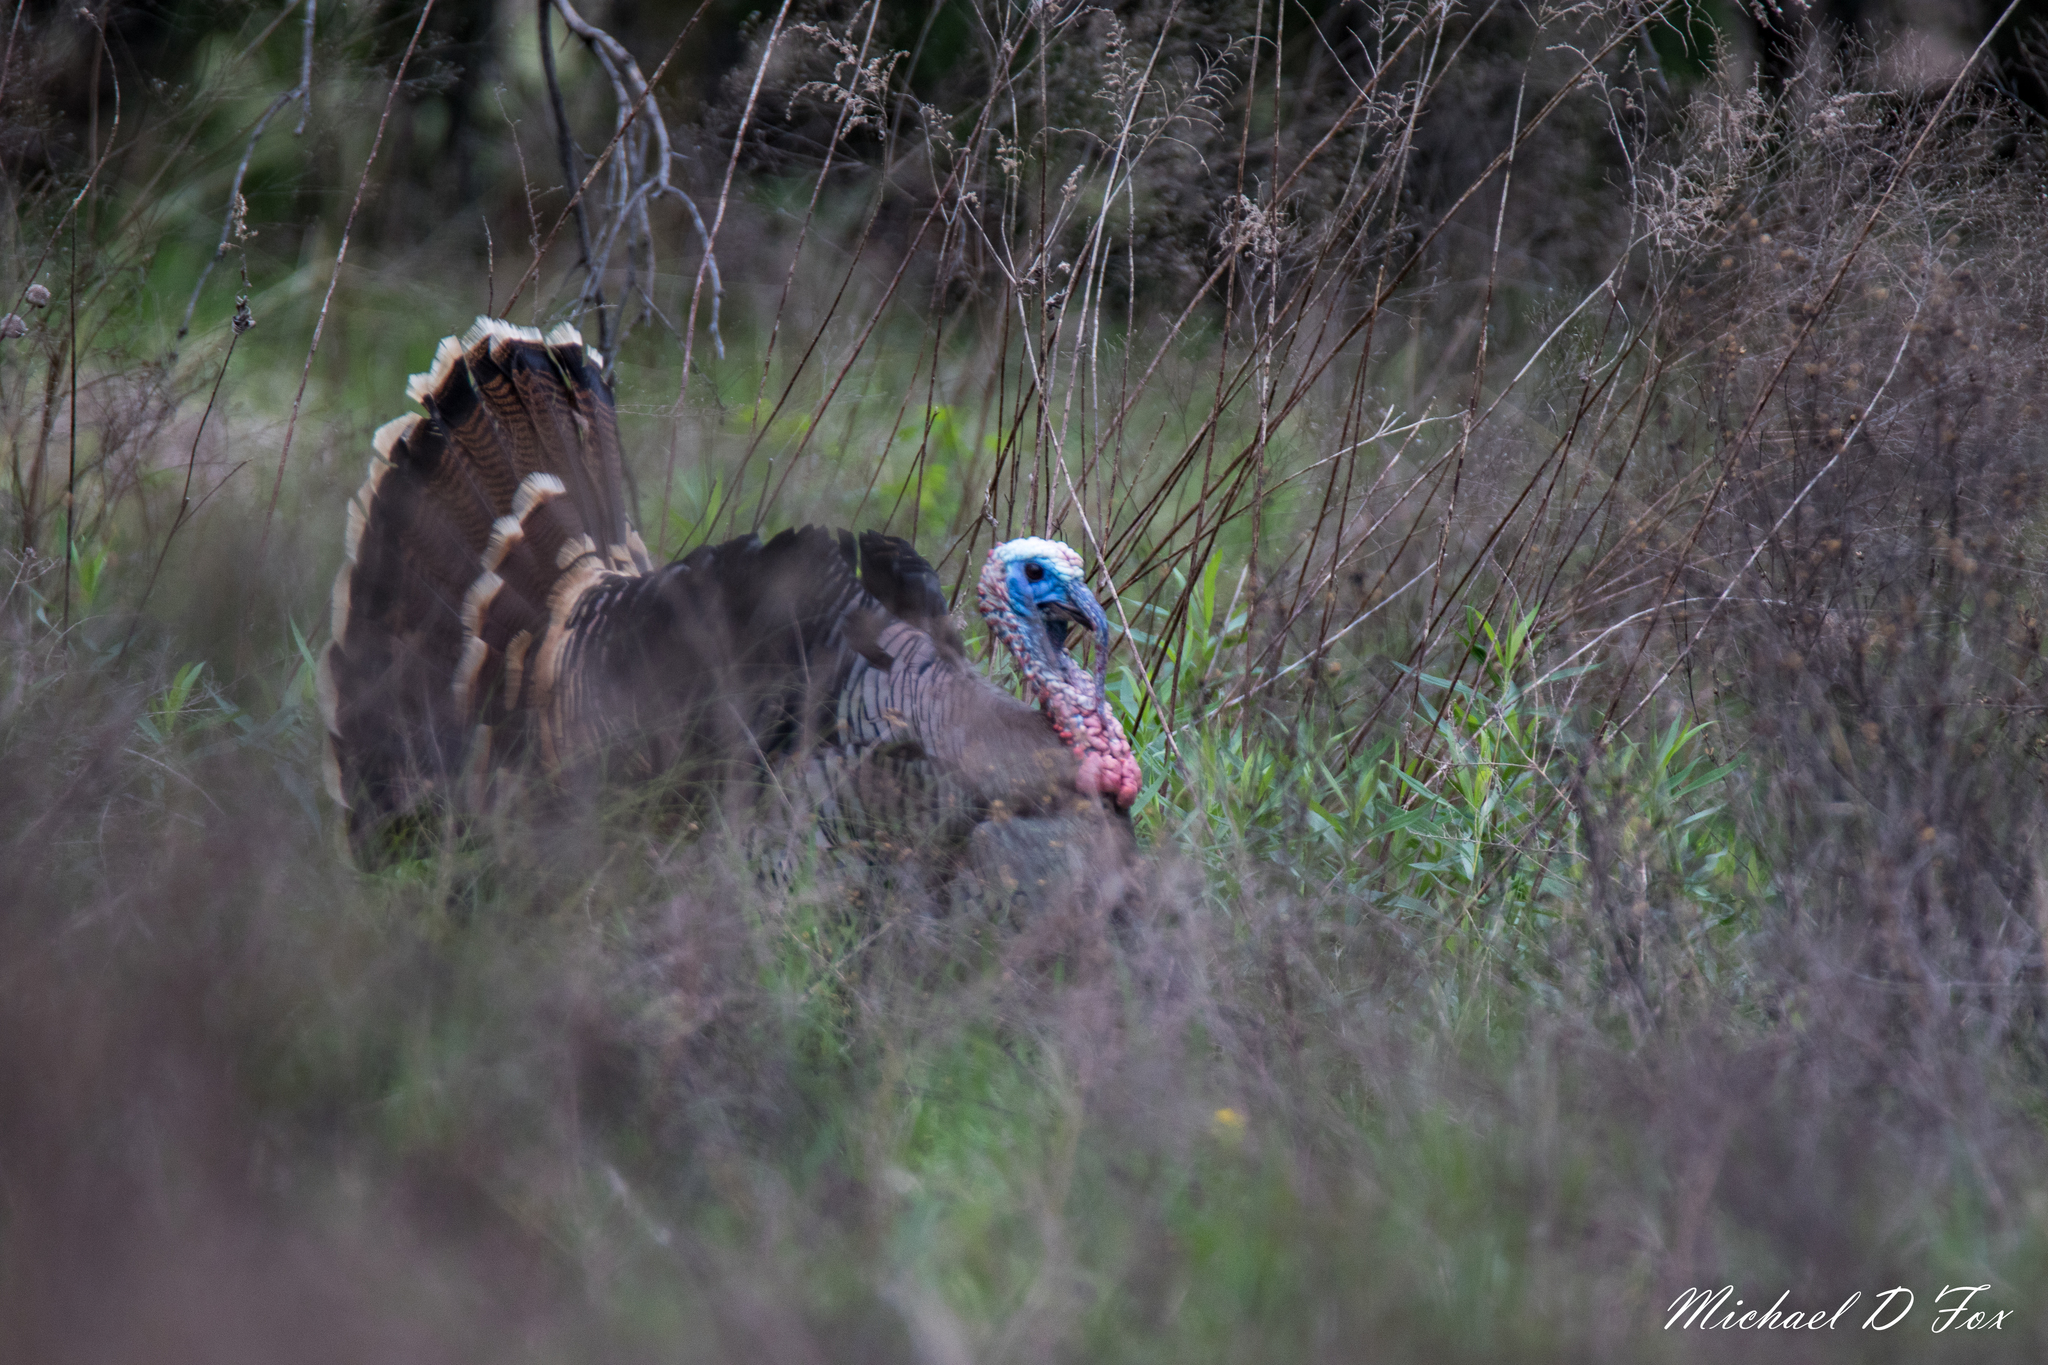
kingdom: Animalia
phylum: Chordata
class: Aves
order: Galliformes
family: Phasianidae
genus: Meleagris
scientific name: Meleagris gallopavo
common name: Wild turkey
